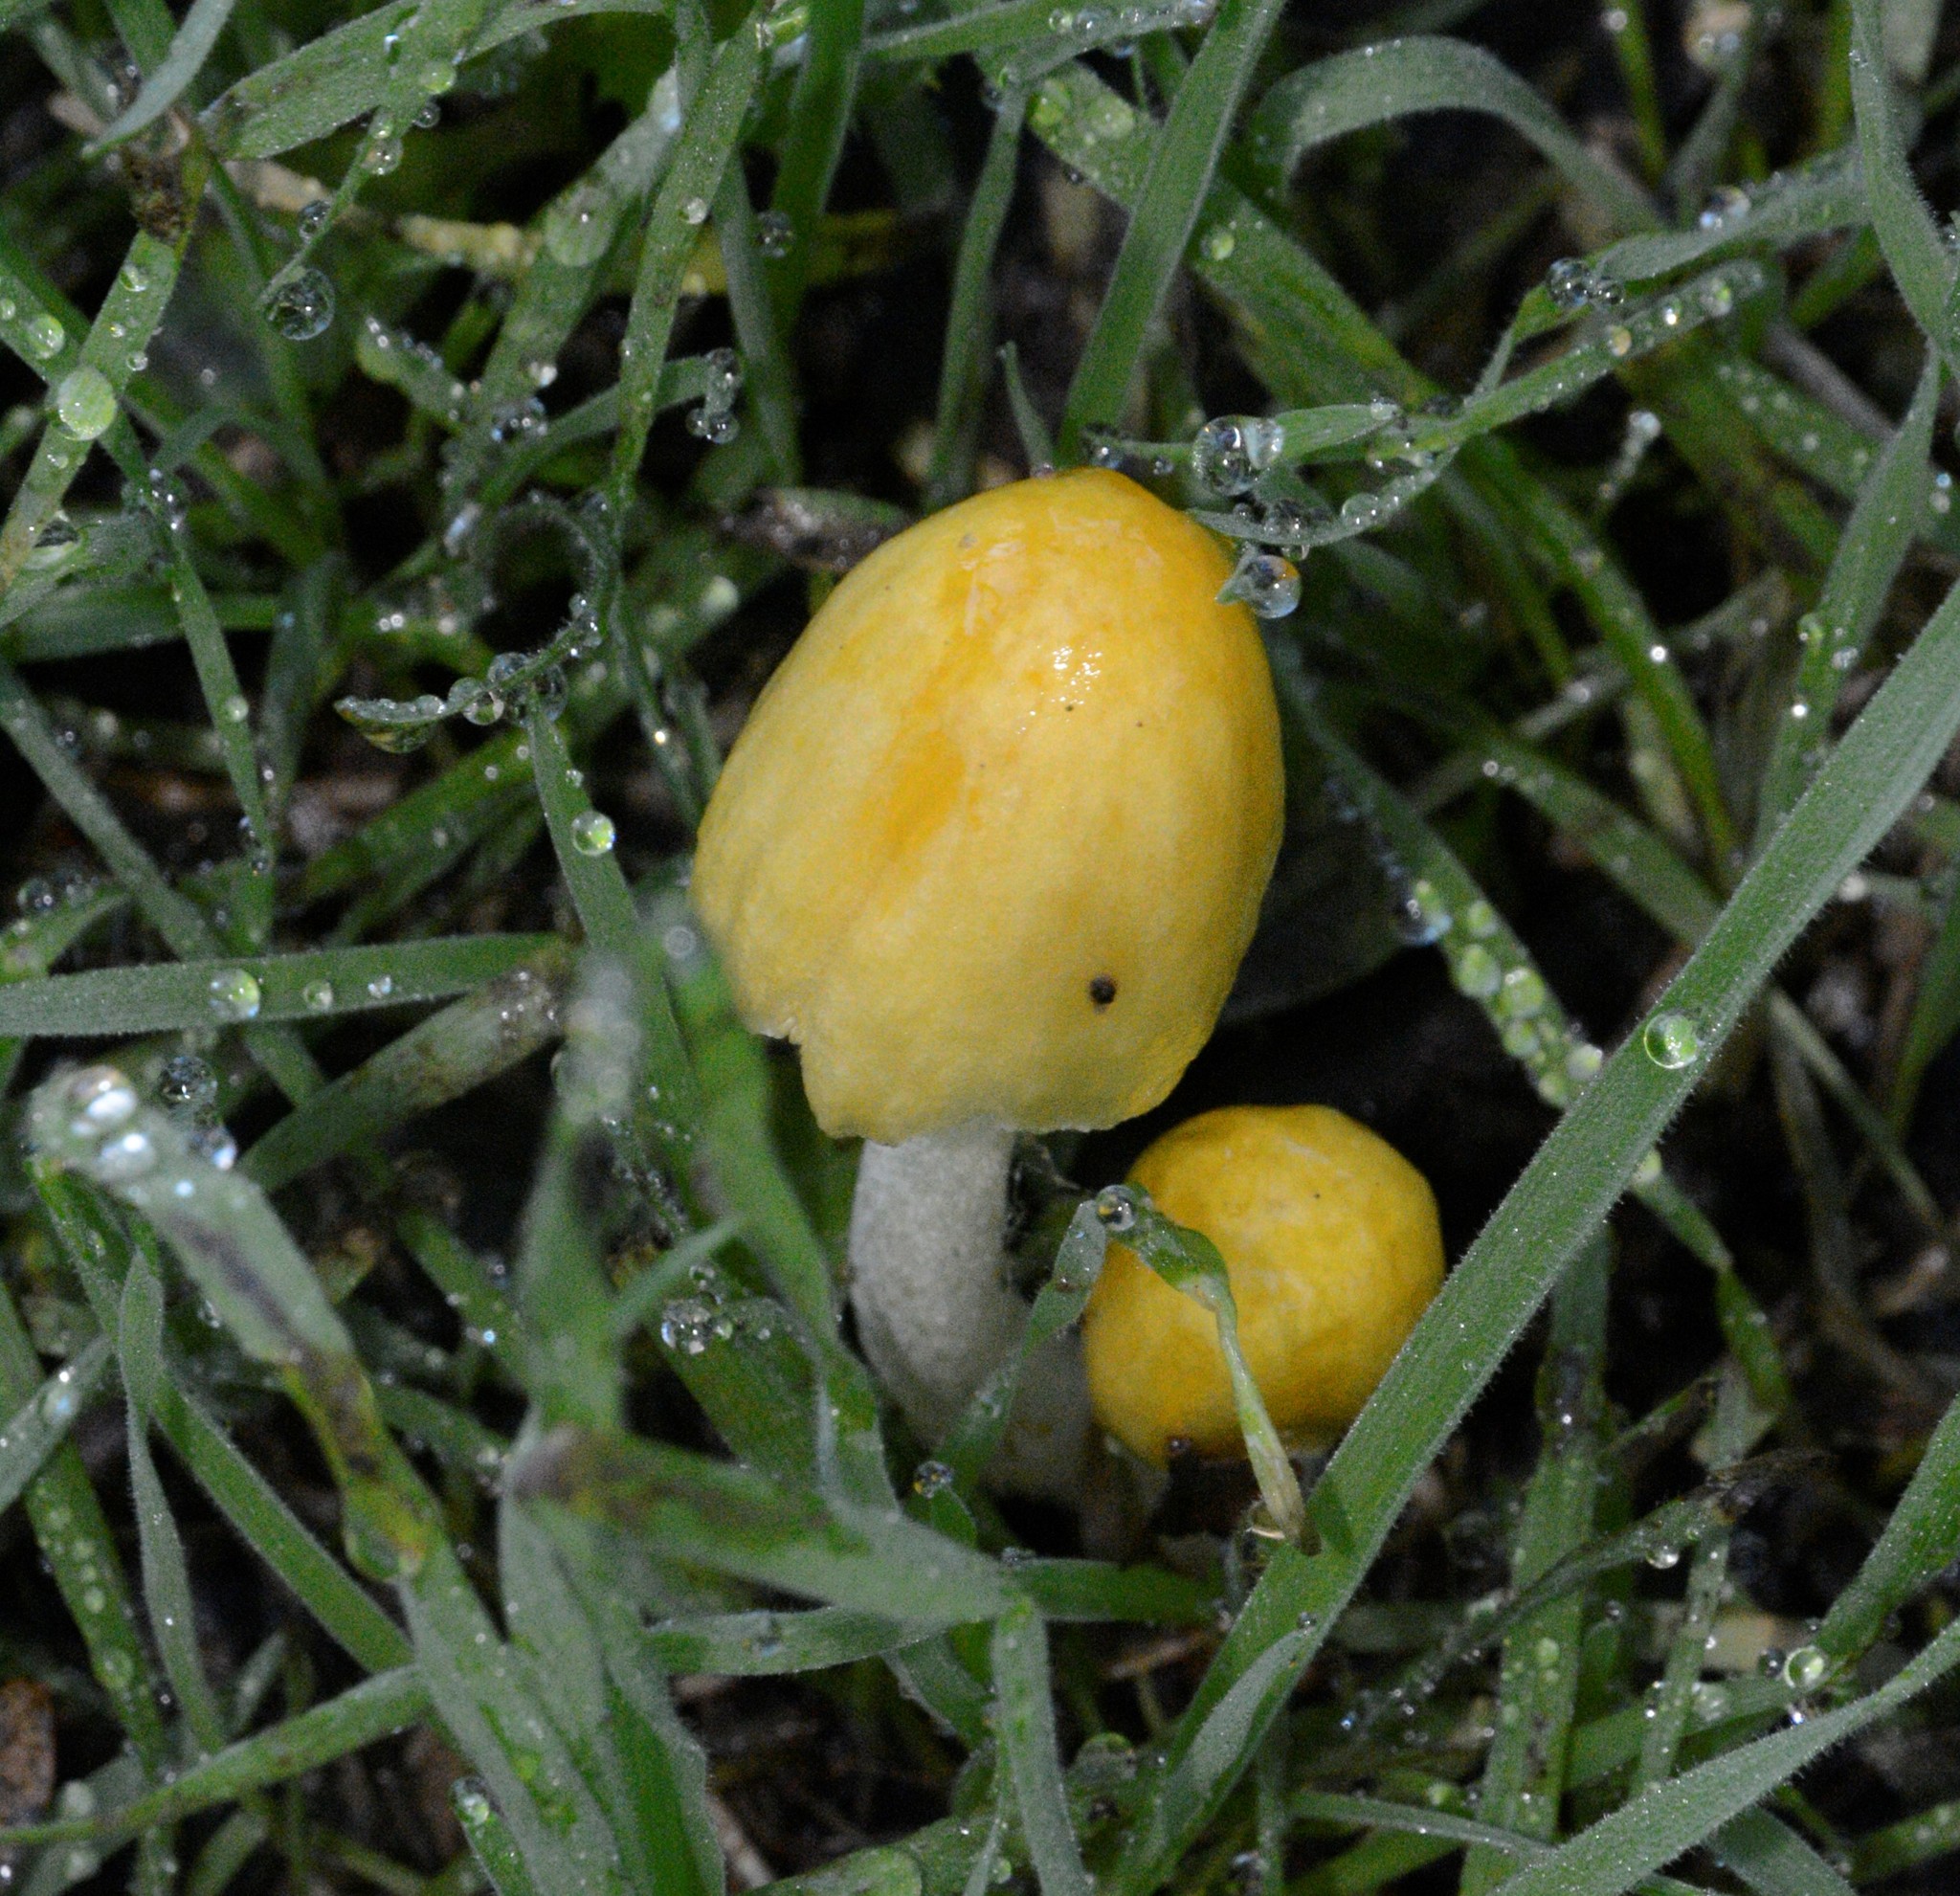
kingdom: Fungi
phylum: Basidiomycota
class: Agaricomycetes
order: Agaricales
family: Bolbitiaceae
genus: Bolbitius
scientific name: Bolbitius titubans
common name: Yellow fieldcap
